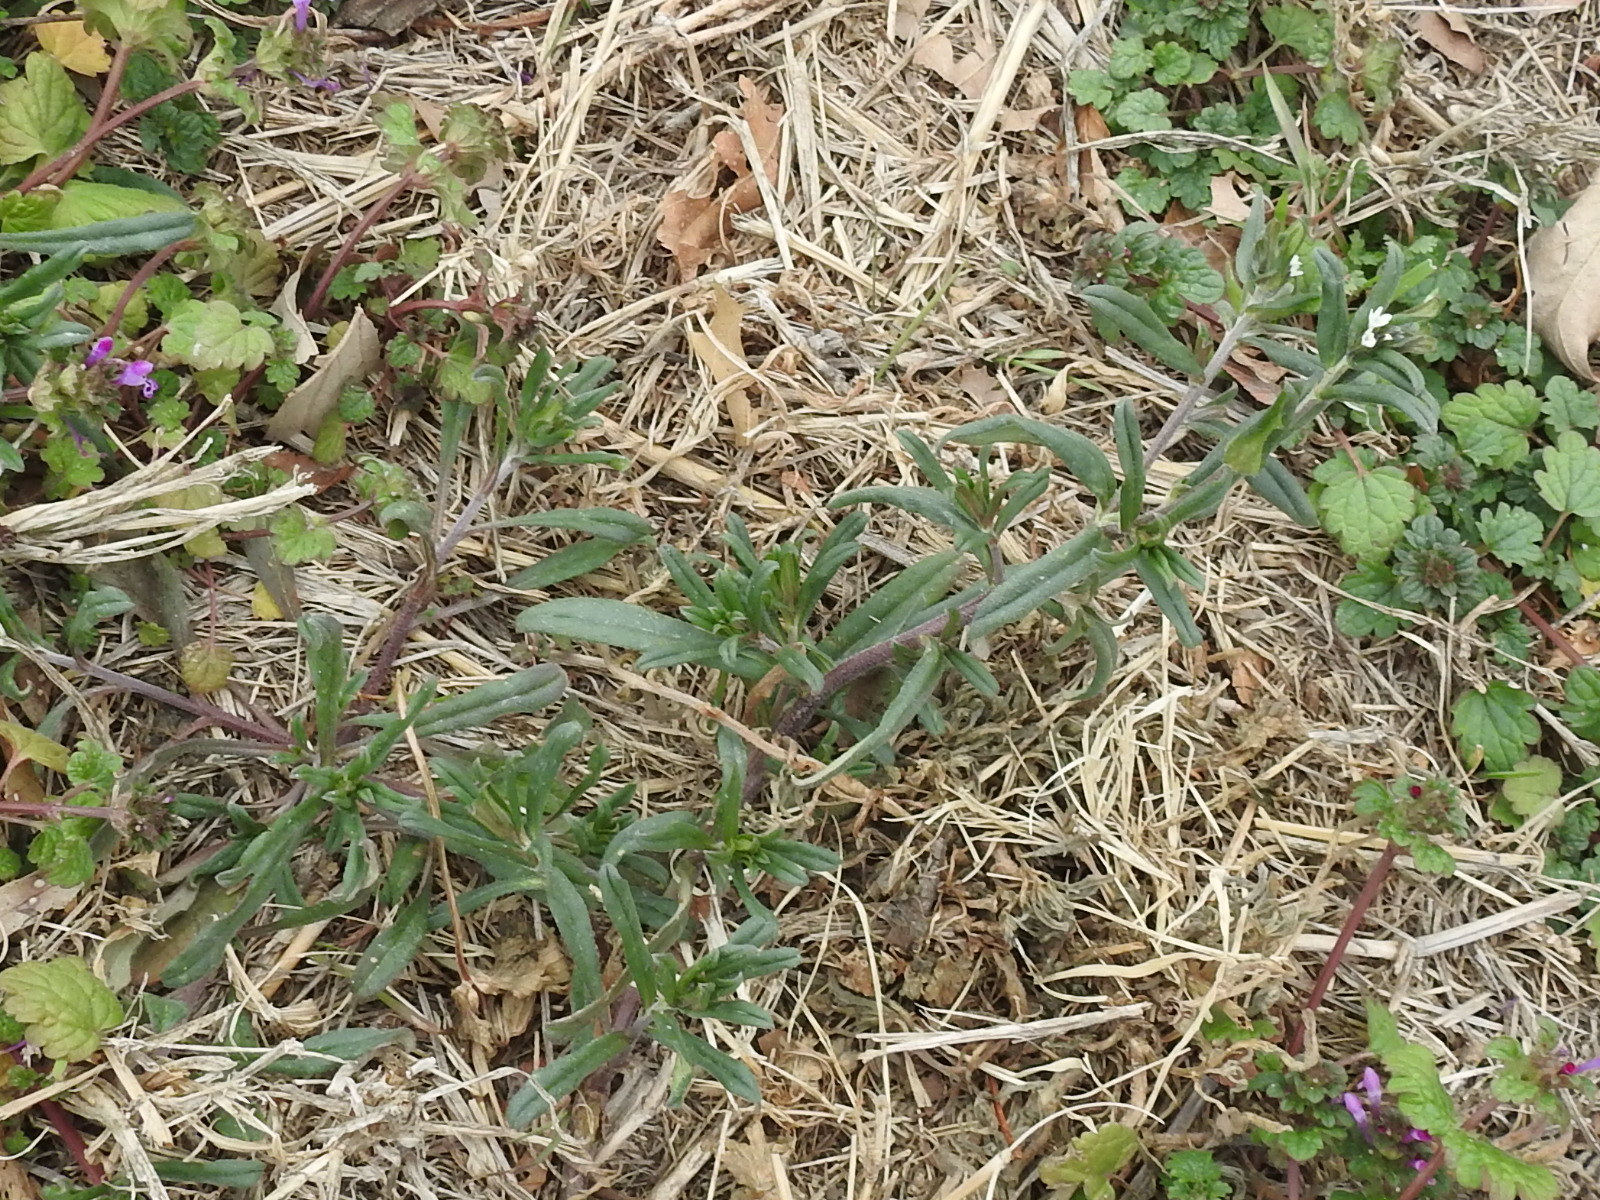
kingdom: Plantae
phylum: Tracheophyta
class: Magnoliopsida
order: Boraginales
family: Boraginaceae
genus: Buglossoides
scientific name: Buglossoides arvensis
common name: Corn gromwell
